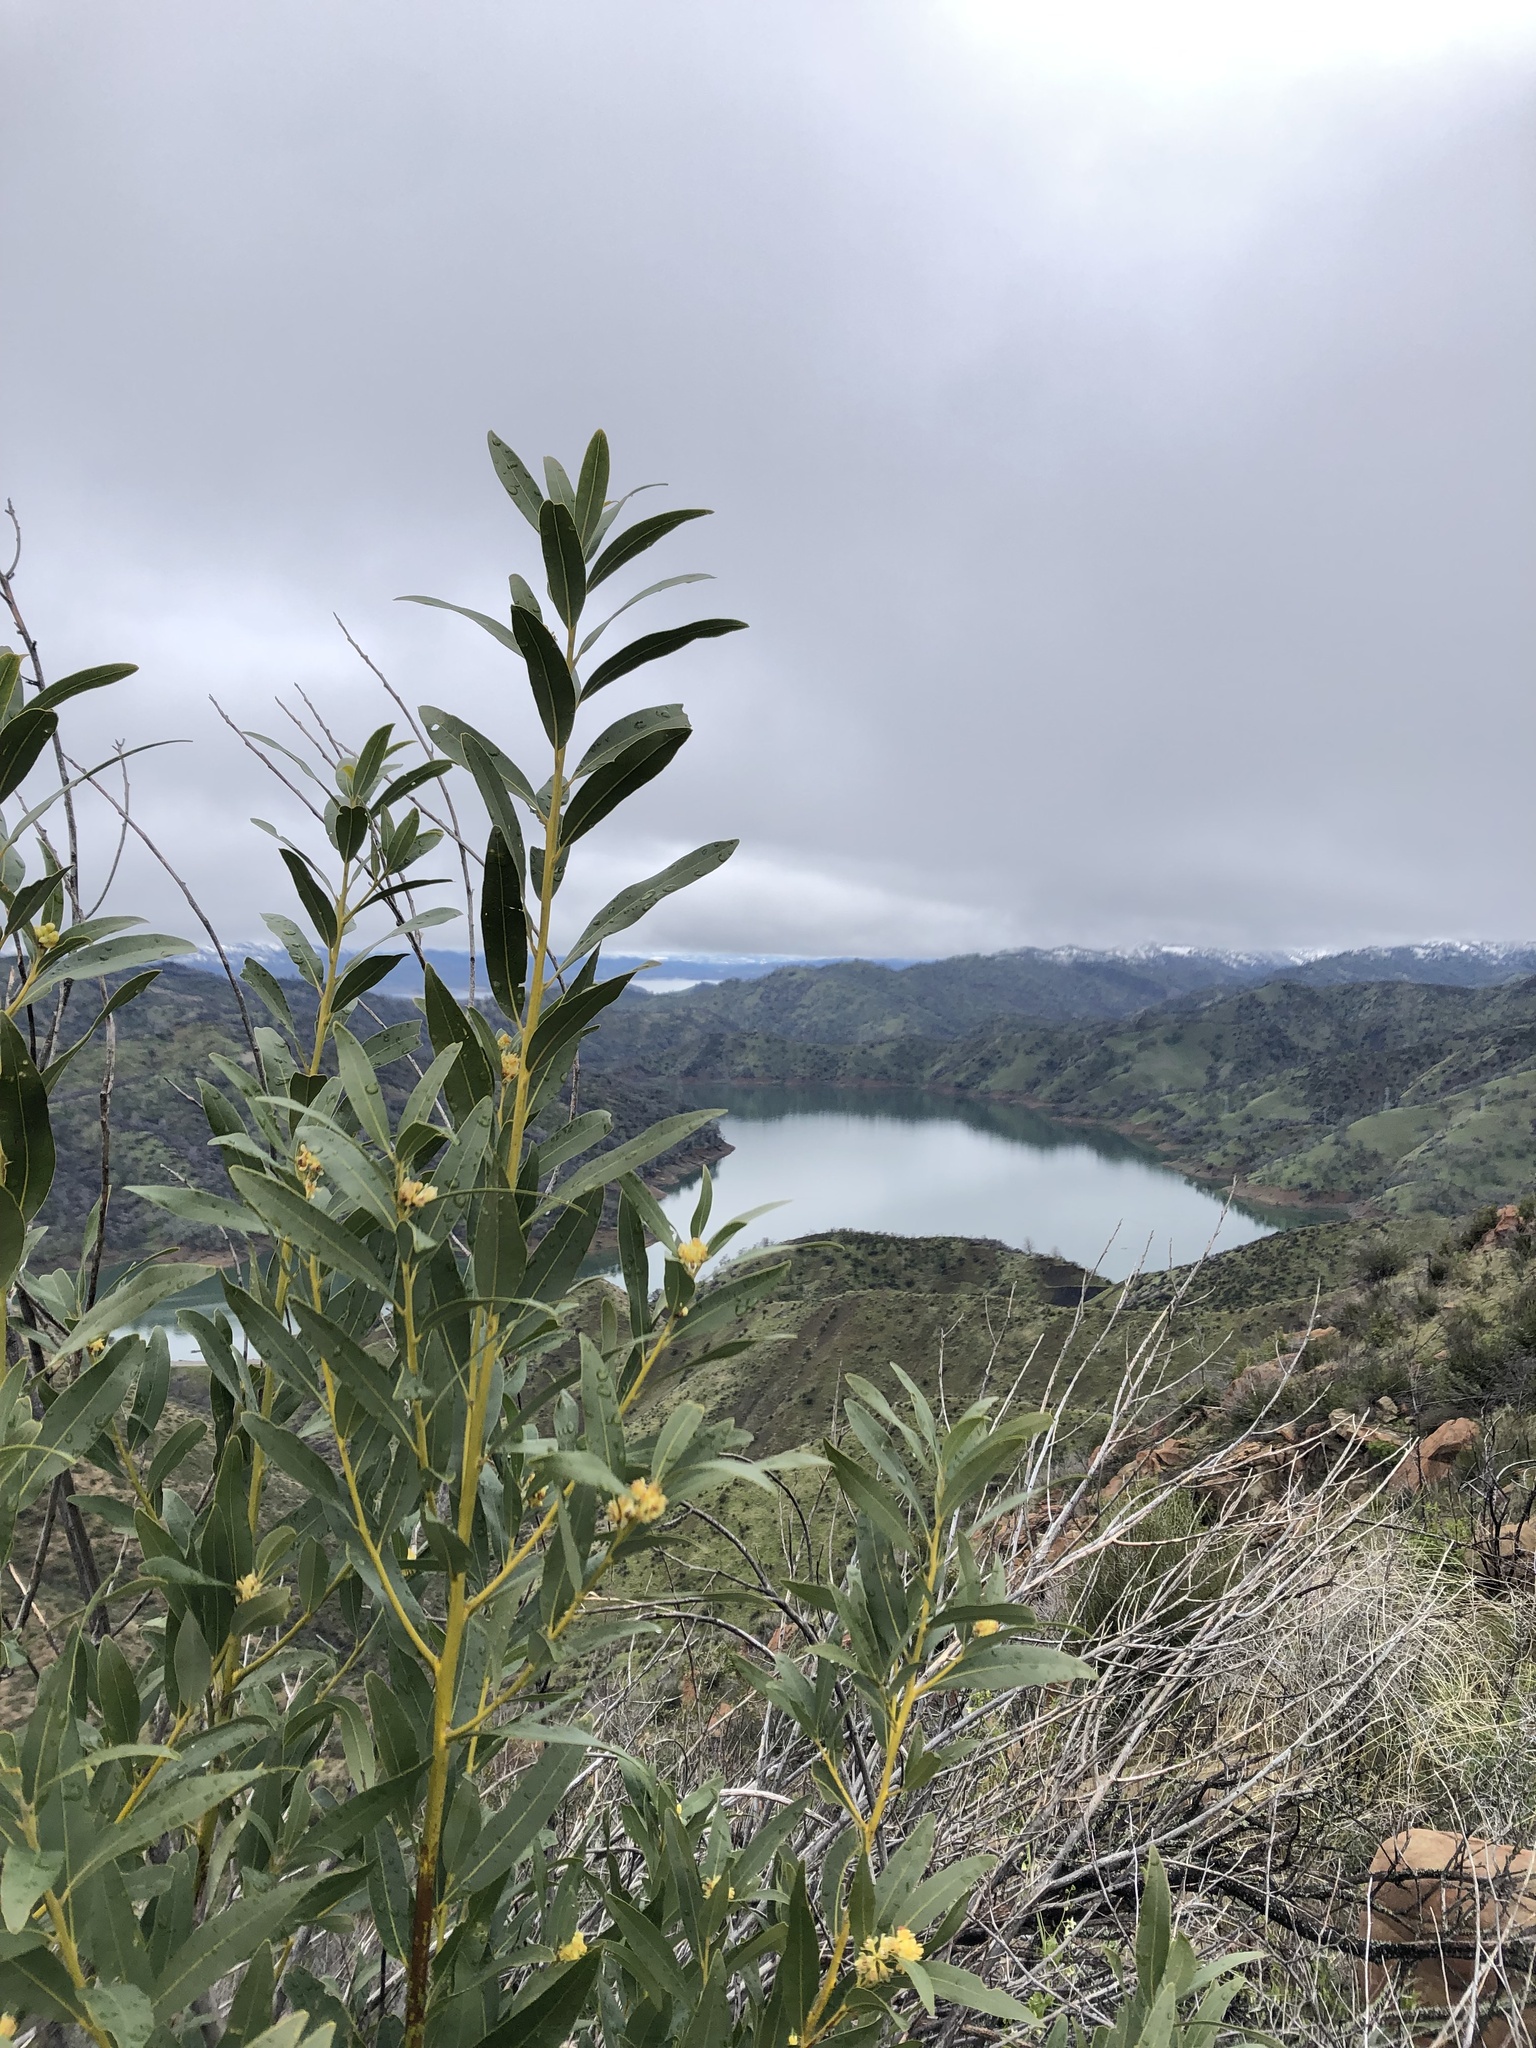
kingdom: Plantae
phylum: Tracheophyta
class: Magnoliopsida
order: Laurales
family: Lauraceae
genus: Umbellularia
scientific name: Umbellularia californica
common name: California bay
